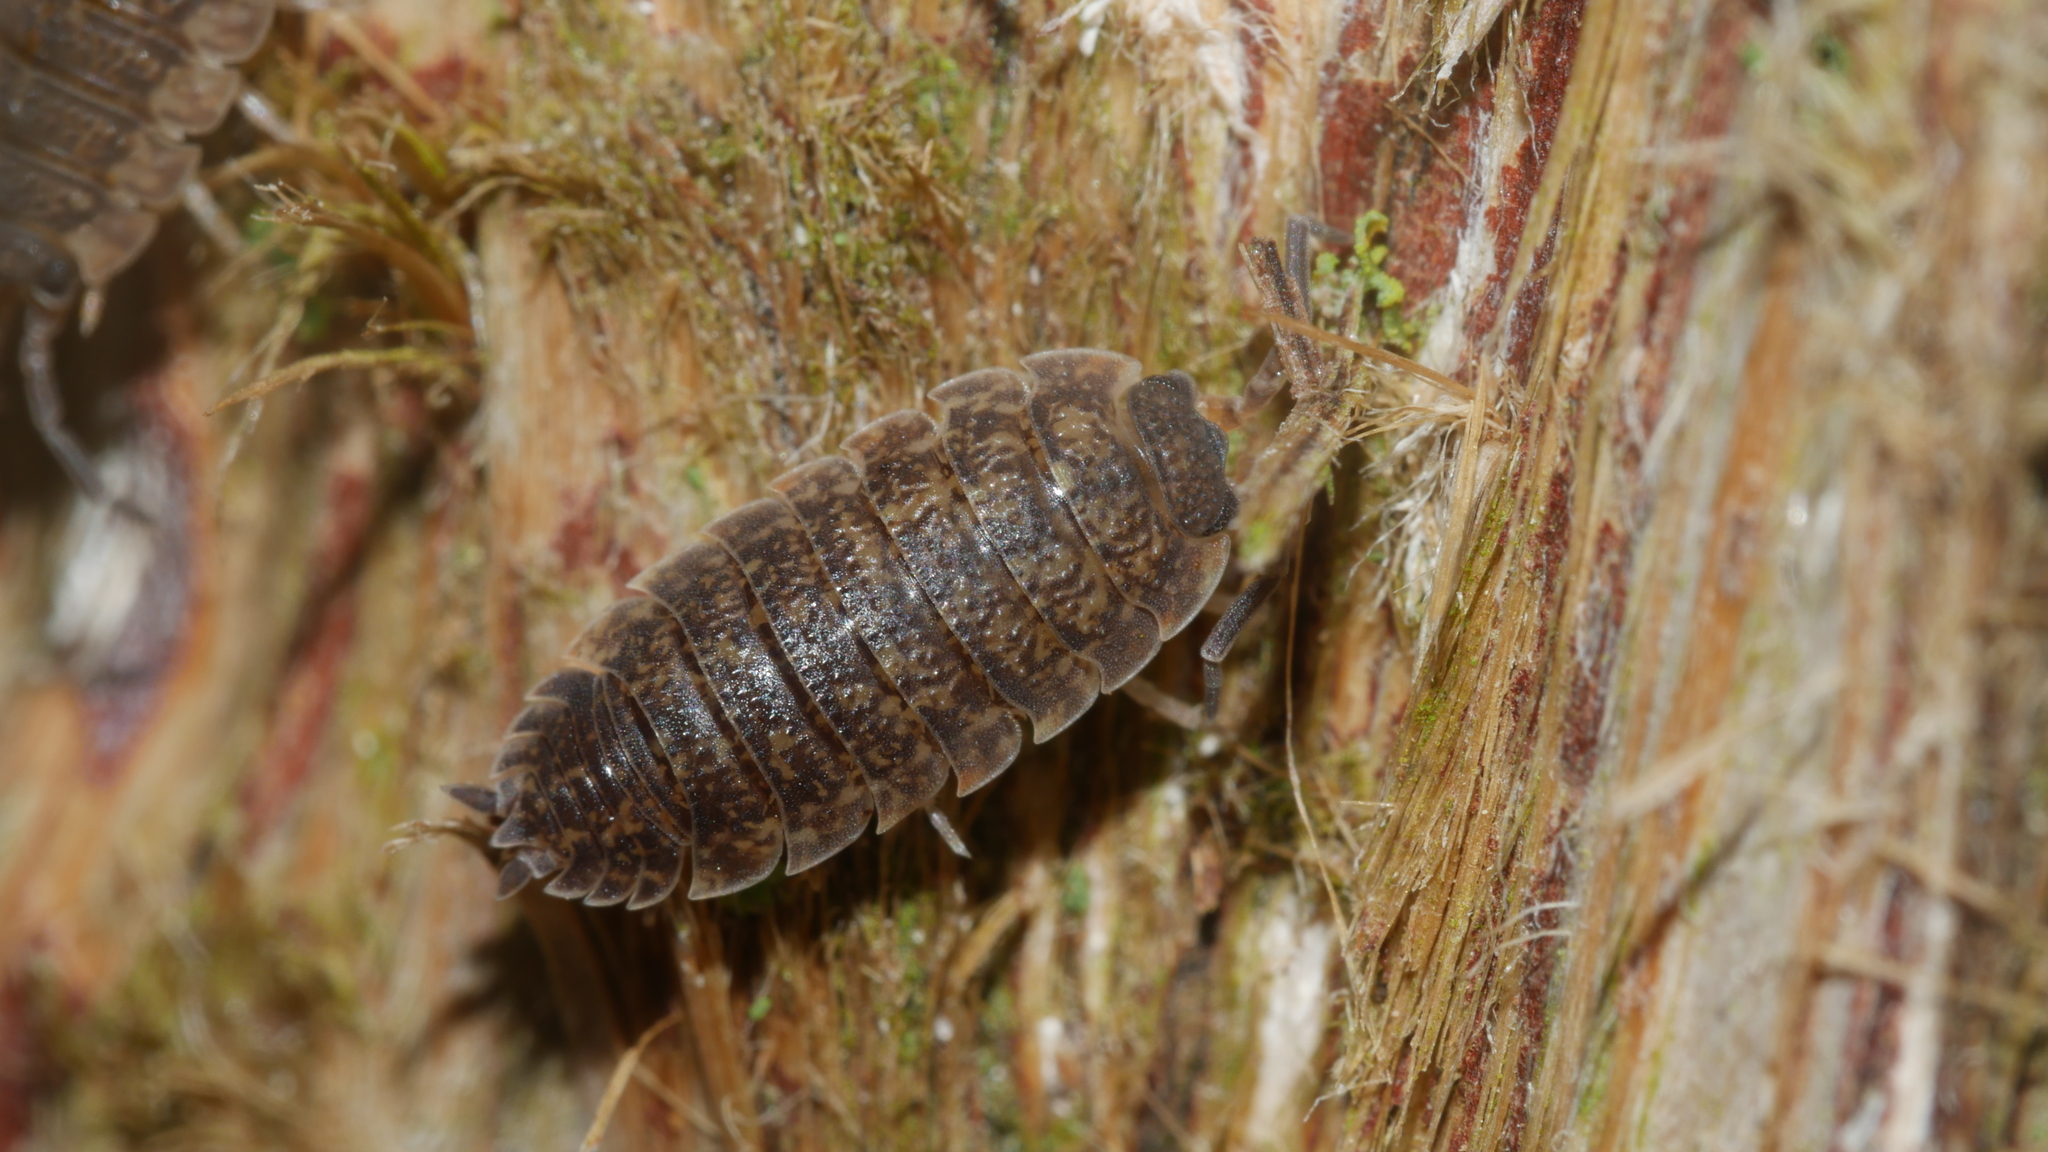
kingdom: Animalia
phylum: Arthropoda
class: Malacostraca
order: Isopoda
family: Porcellionidae
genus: Porcellio
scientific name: Porcellio scaber
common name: Common rough woodlouse
